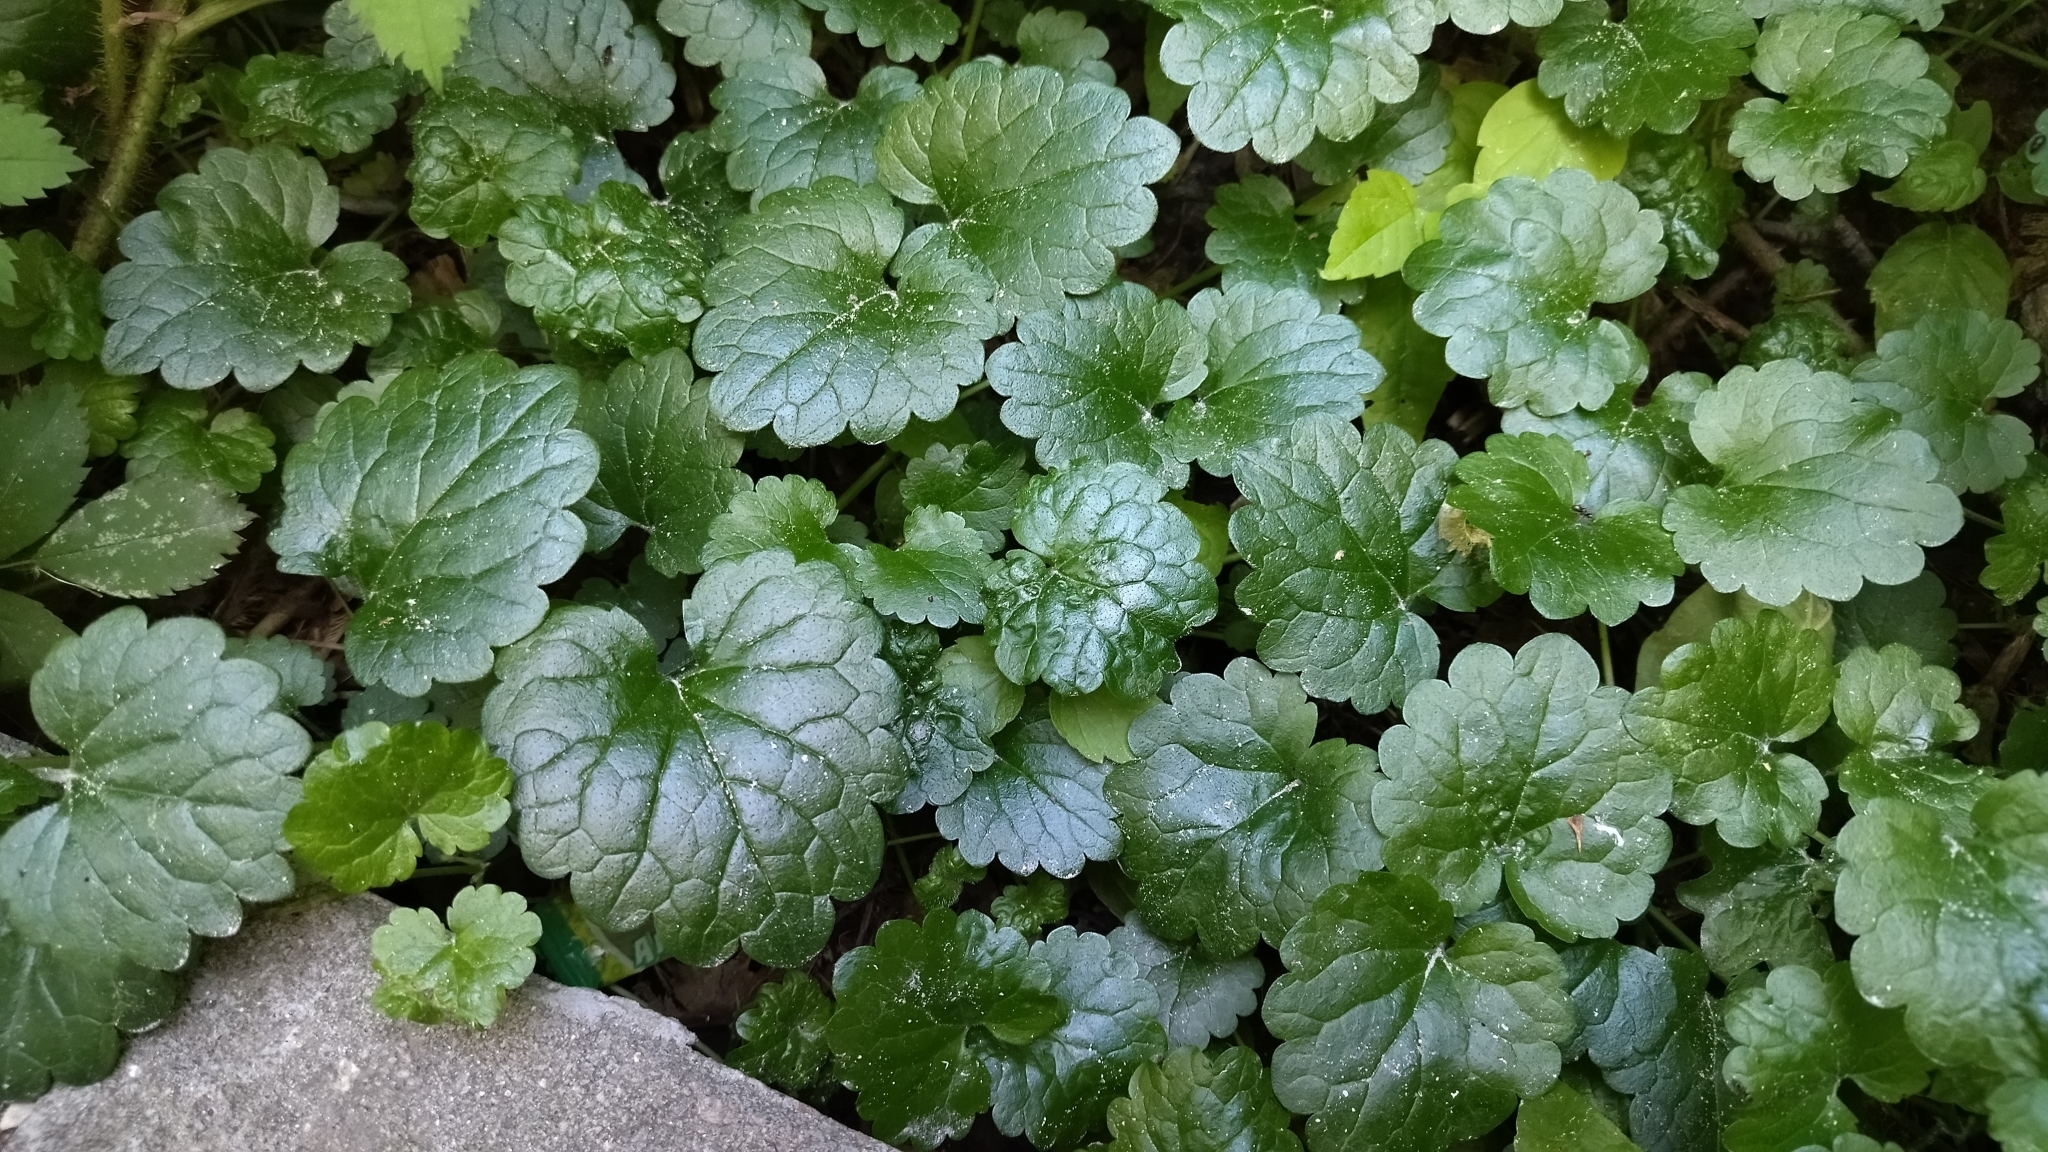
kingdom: Plantae
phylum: Tracheophyta
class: Magnoliopsida
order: Lamiales
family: Lamiaceae
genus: Glechoma
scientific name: Glechoma hederacea
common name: Ground ivy
